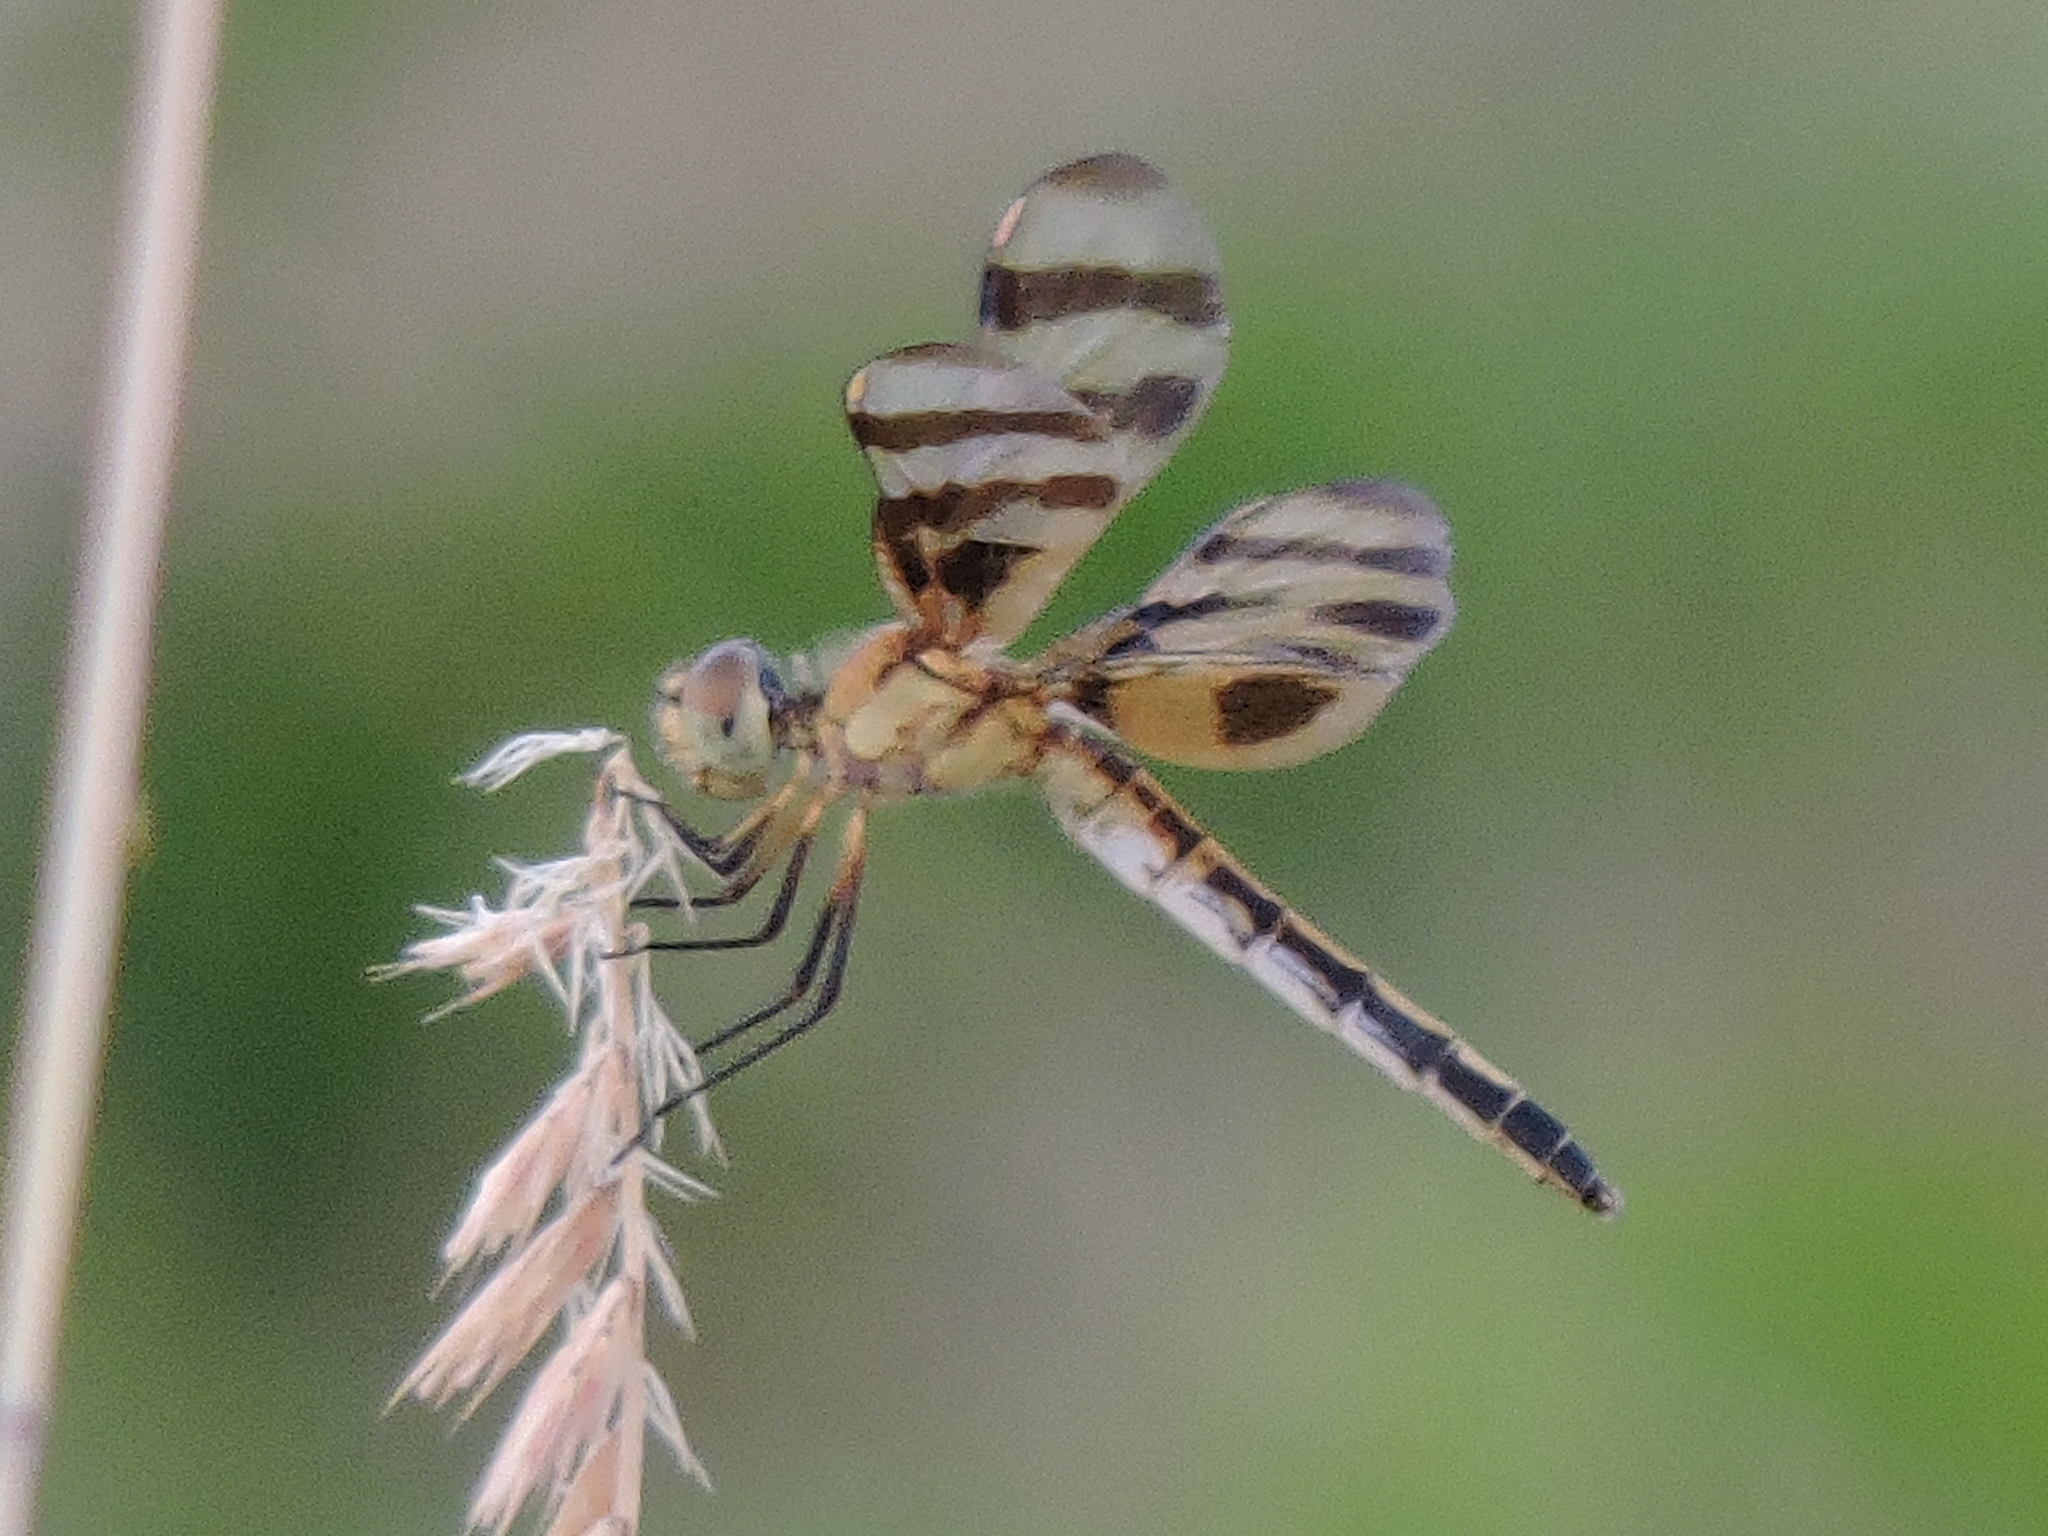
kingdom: Animalia
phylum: Arthropoda
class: Insecta
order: Odonata
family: Libellulidae
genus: Celithemis
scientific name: Celithemis eponina
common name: Halloween pennant
